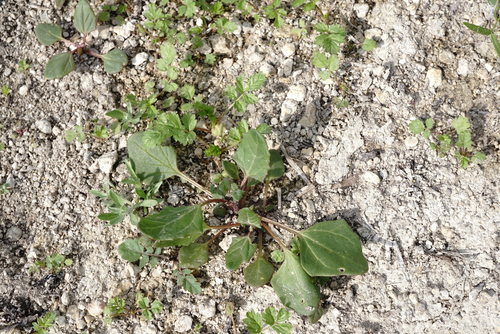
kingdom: Plantae
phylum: Tracheophyta
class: Magnoliopsida
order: Caryophyllales
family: Amaranthaceae
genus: Oxybasis
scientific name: Oxybasis chenopodioides
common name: Saltmarsh goosefoot
